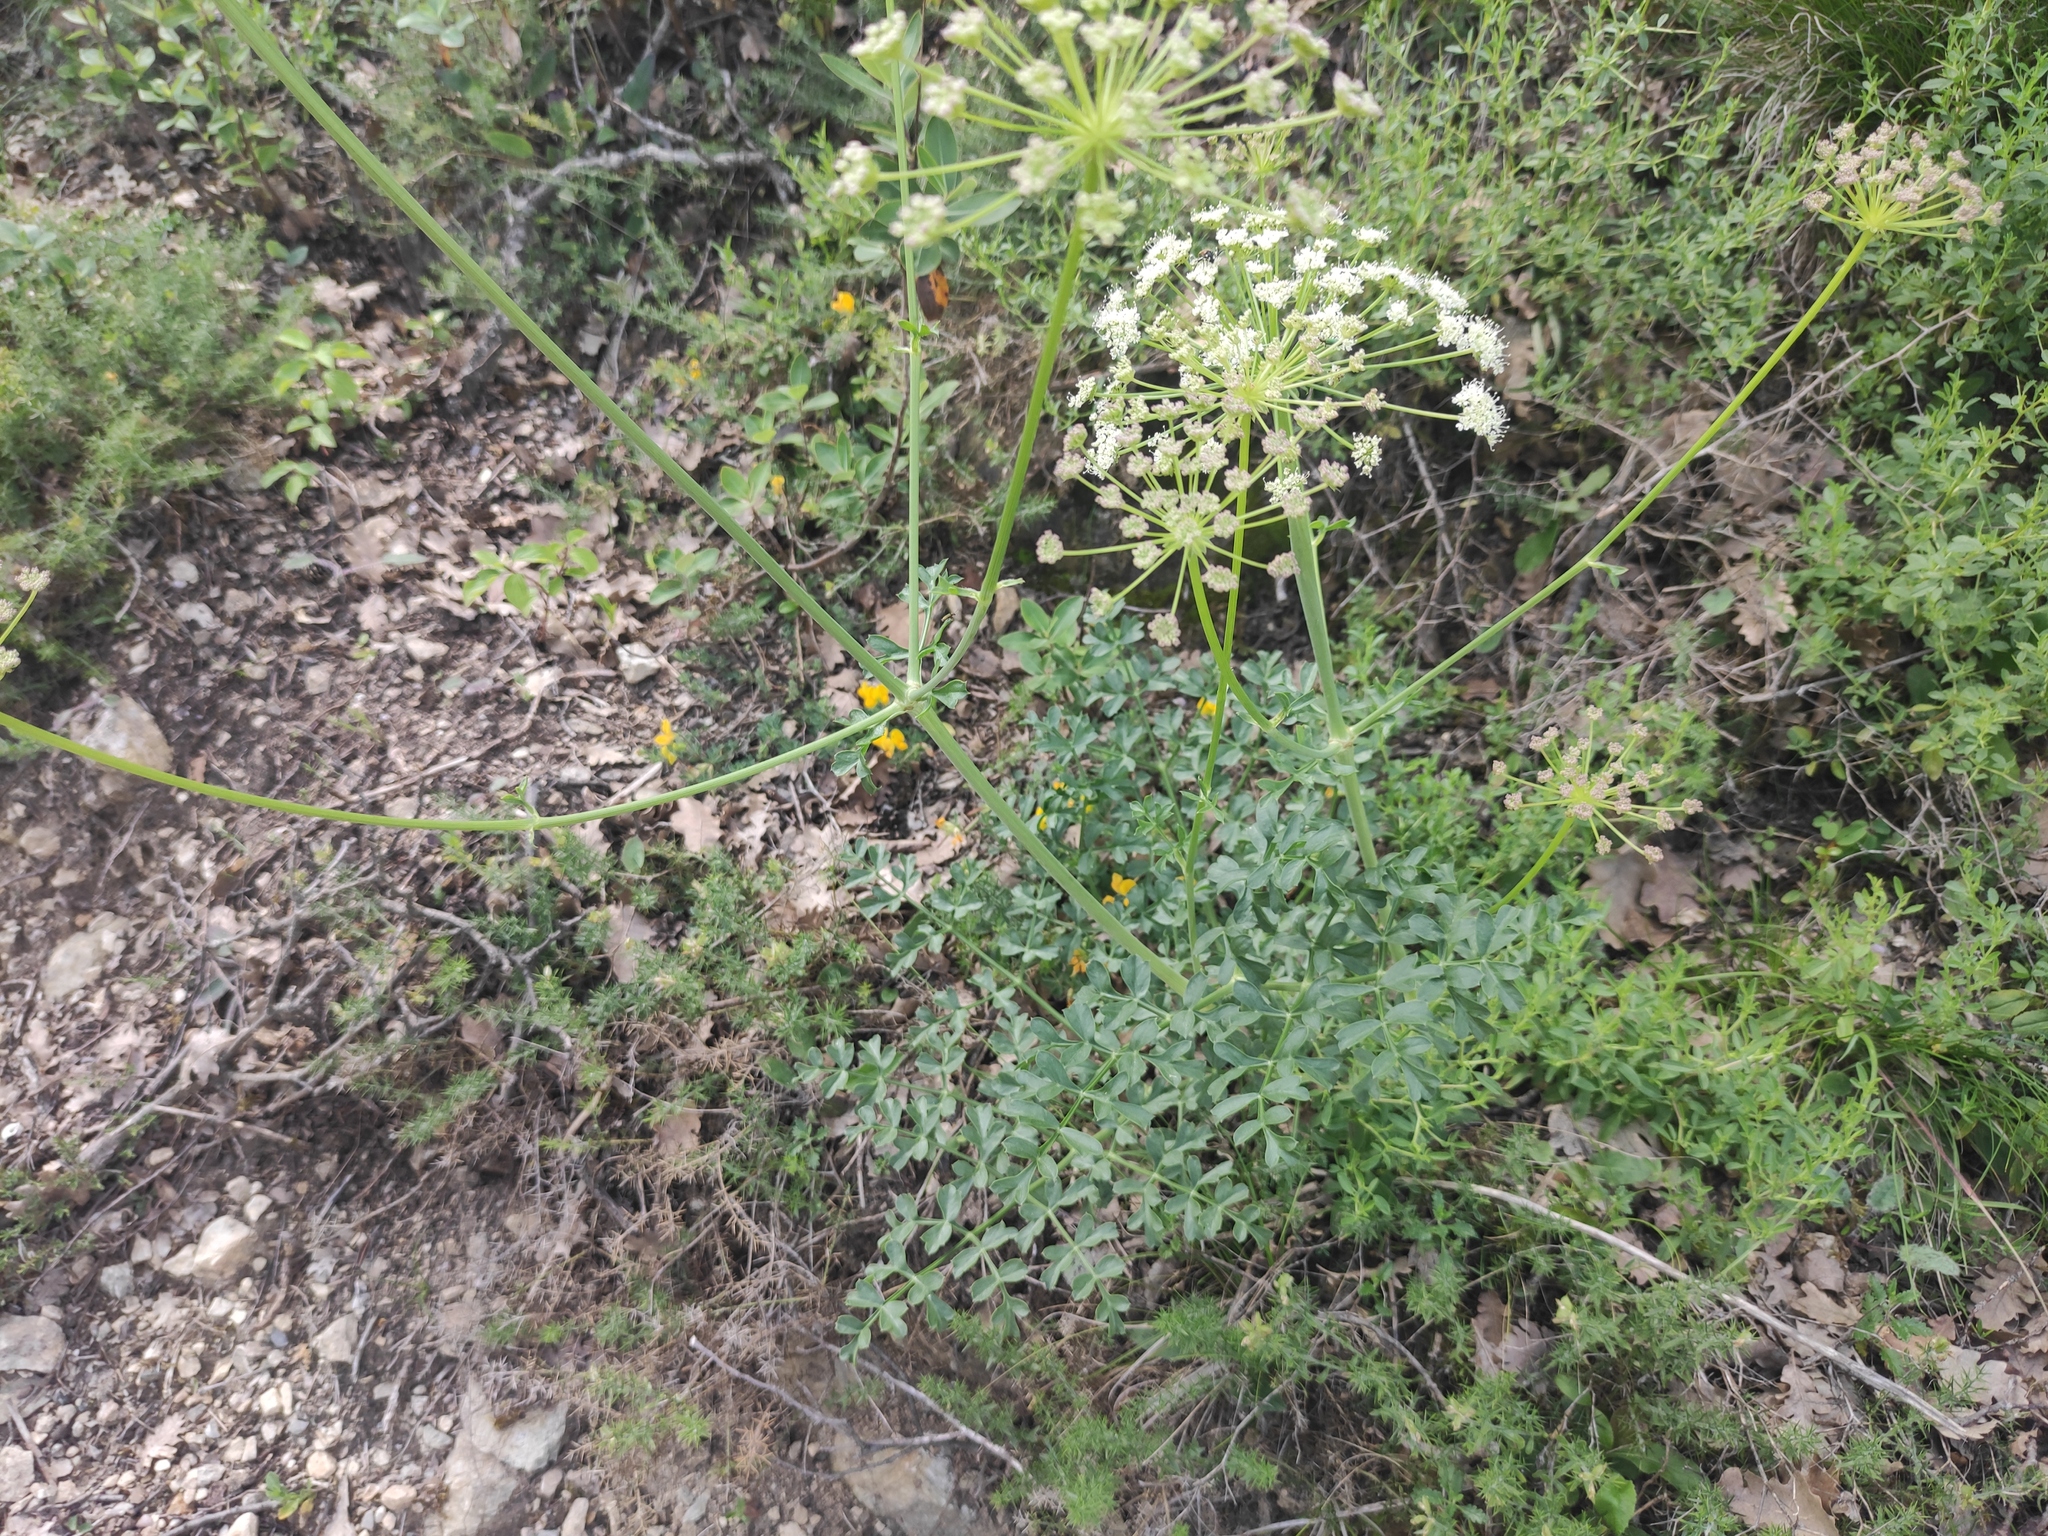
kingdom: Plantae
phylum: Tracheophyta
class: Magnoliopsida
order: Apiales
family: Apiaceae
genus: Laserpitium
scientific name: Laserpitium gallicum
